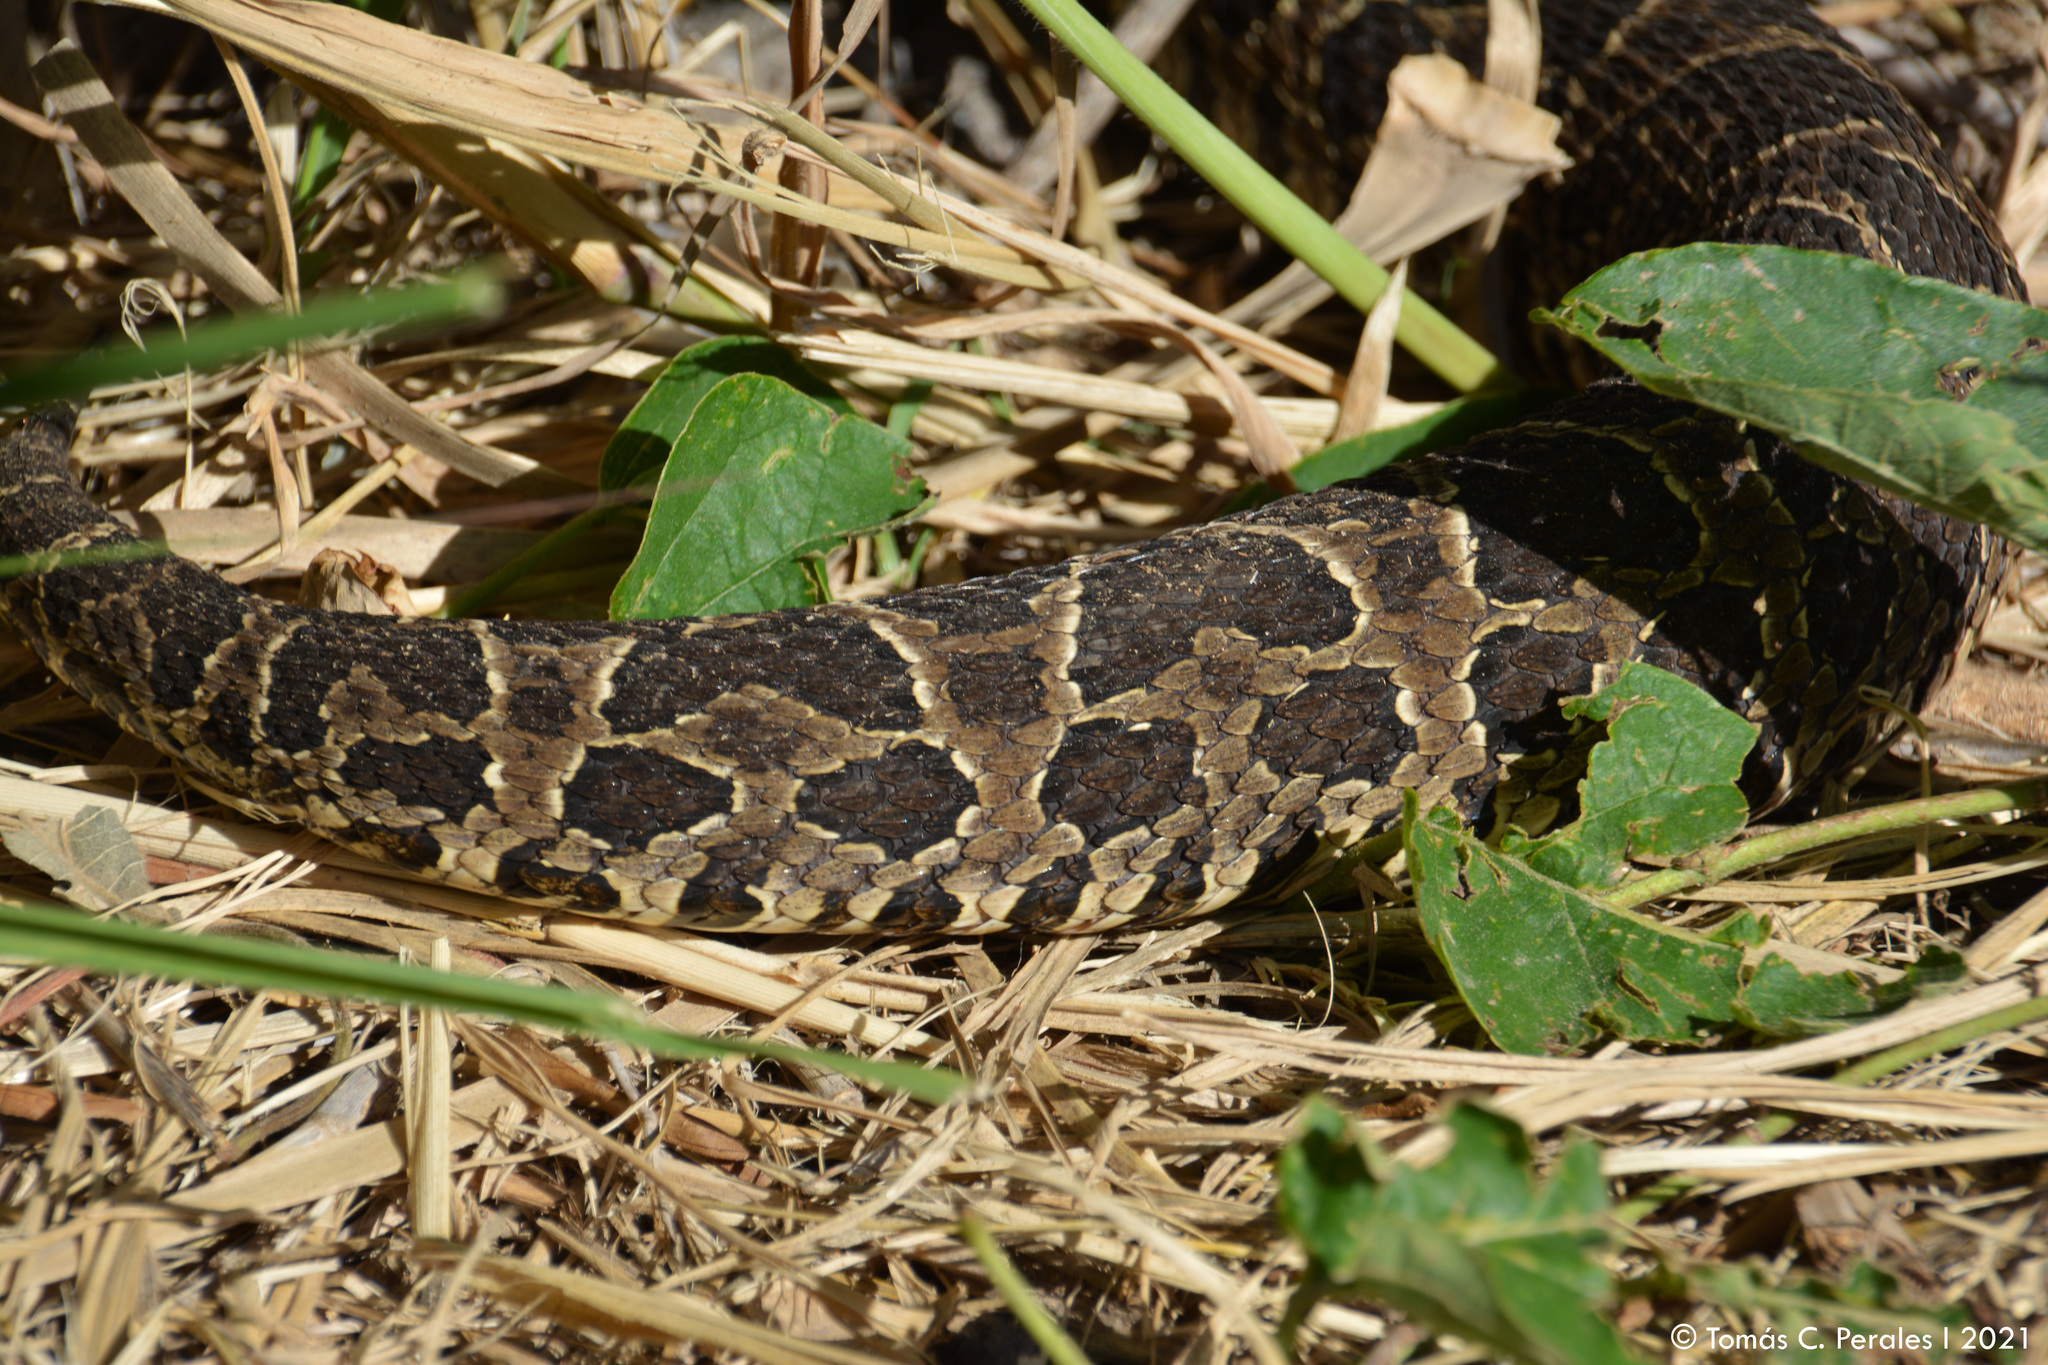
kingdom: Animalia
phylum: Chordata
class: Squamata
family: Viperidae
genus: Bothrops
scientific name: Bothrops alternatus
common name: Urutu
